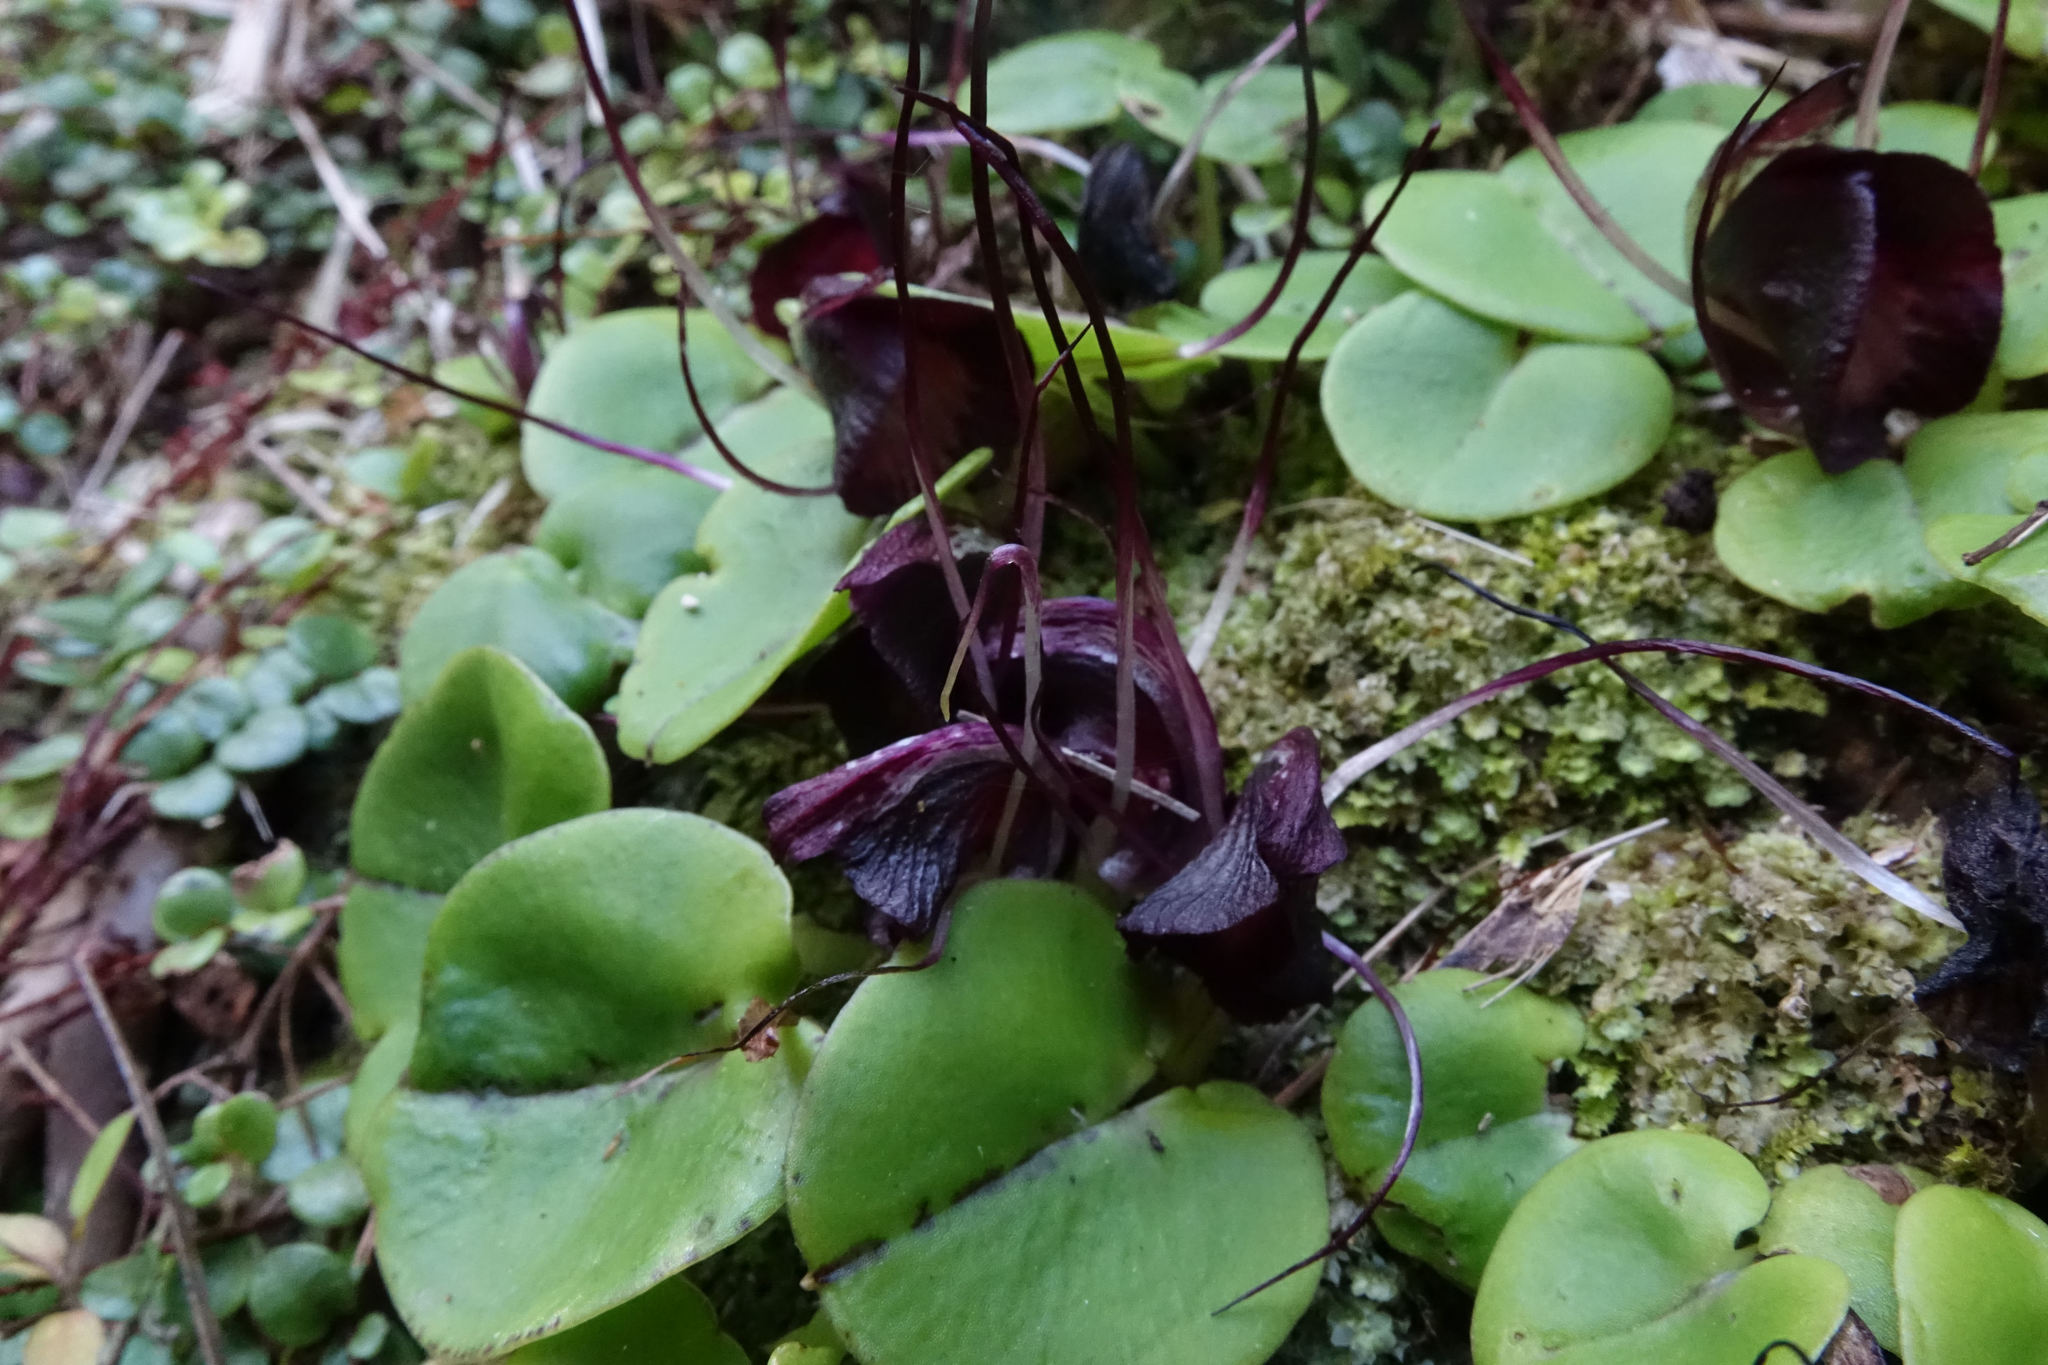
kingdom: Plantae
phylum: Tracheophyta
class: Liliopsida
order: Asparagales
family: Orchidaceae
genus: Corybas
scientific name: Corybas macranthus
